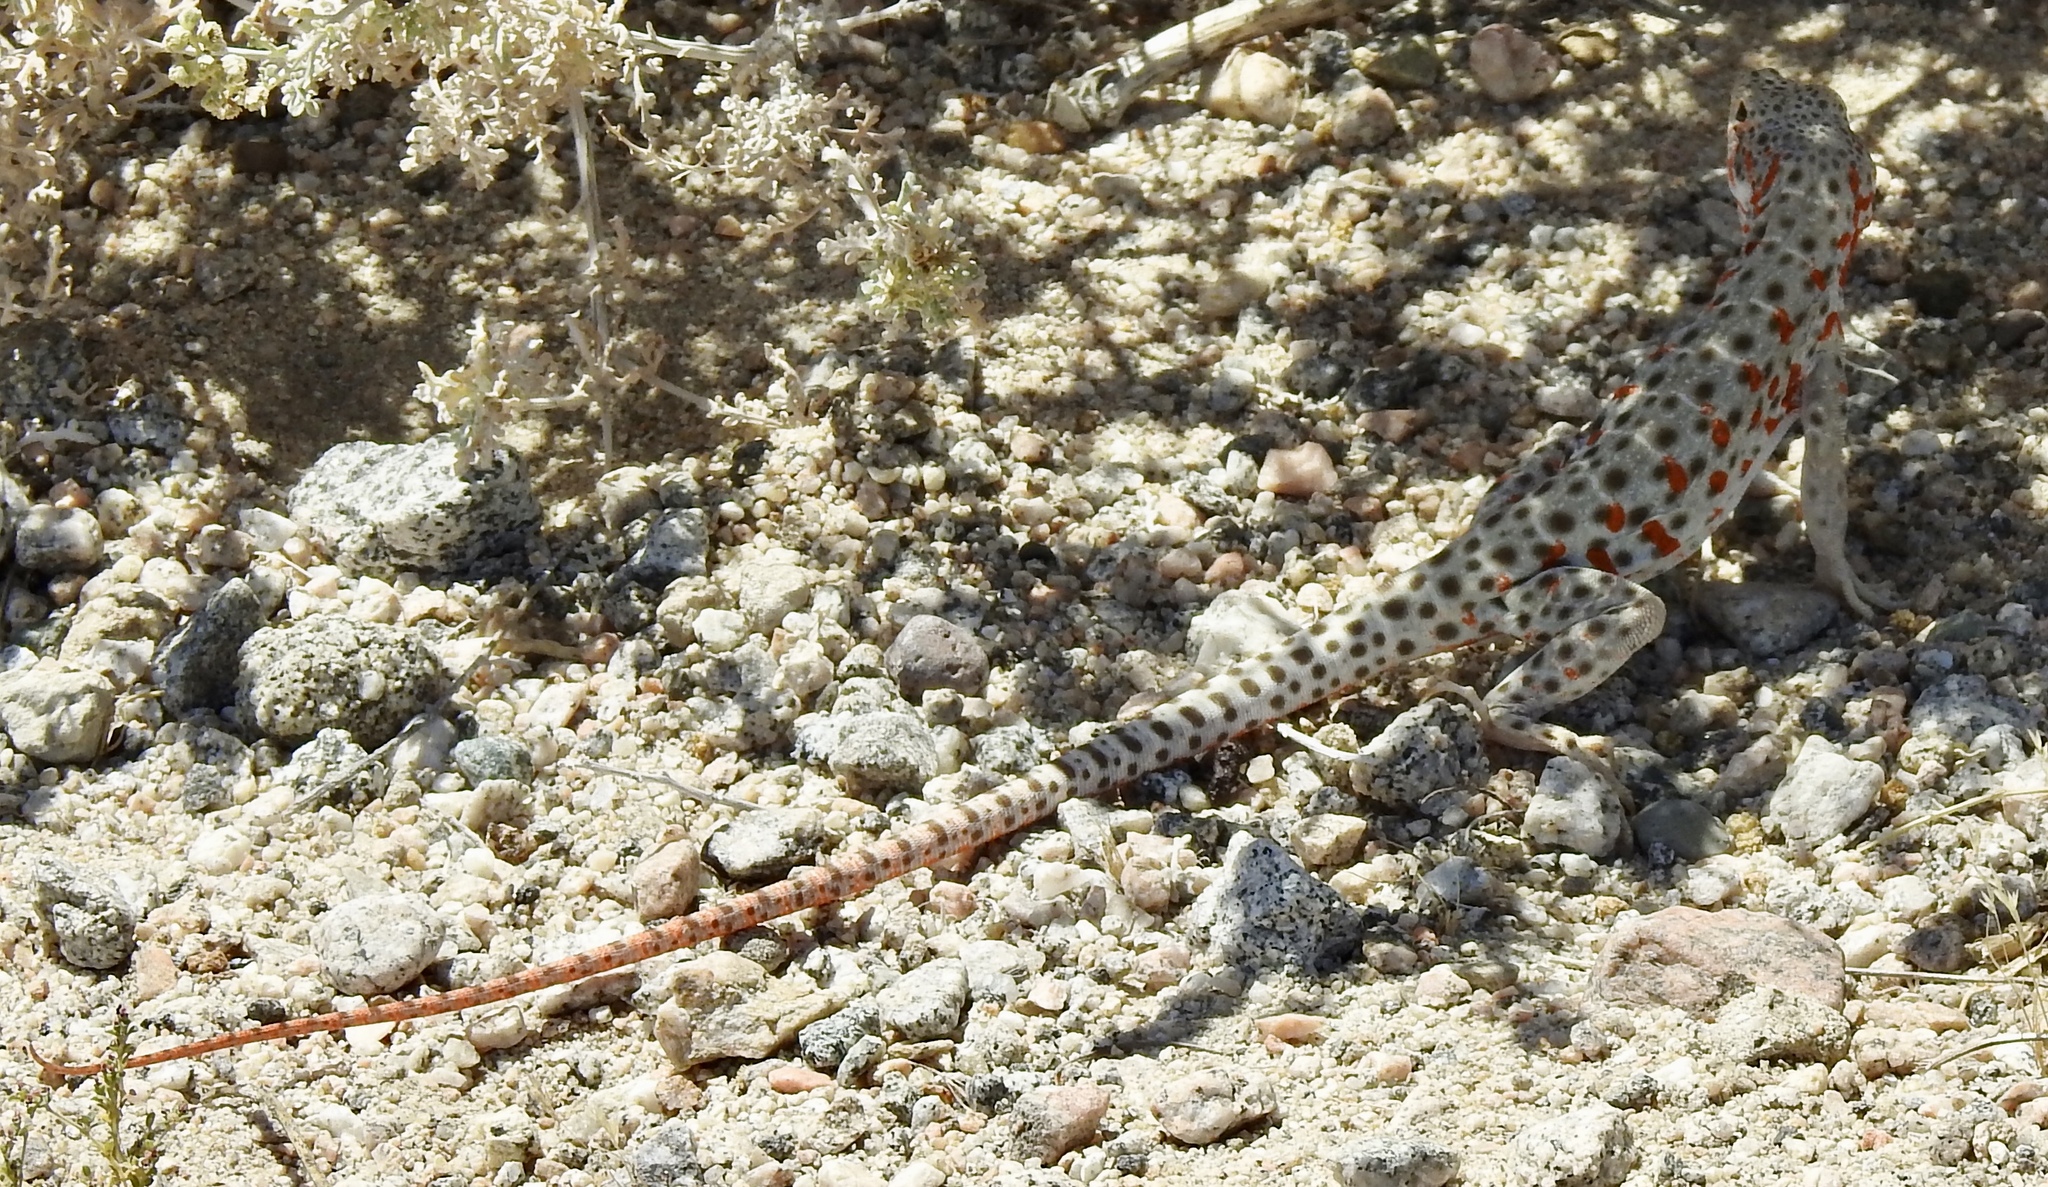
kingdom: Animalia
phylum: Chordata
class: Squamata
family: Crotaphytidae
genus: Gambelia
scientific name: Gambelia wislizenii
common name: Longnose leopard lizard
